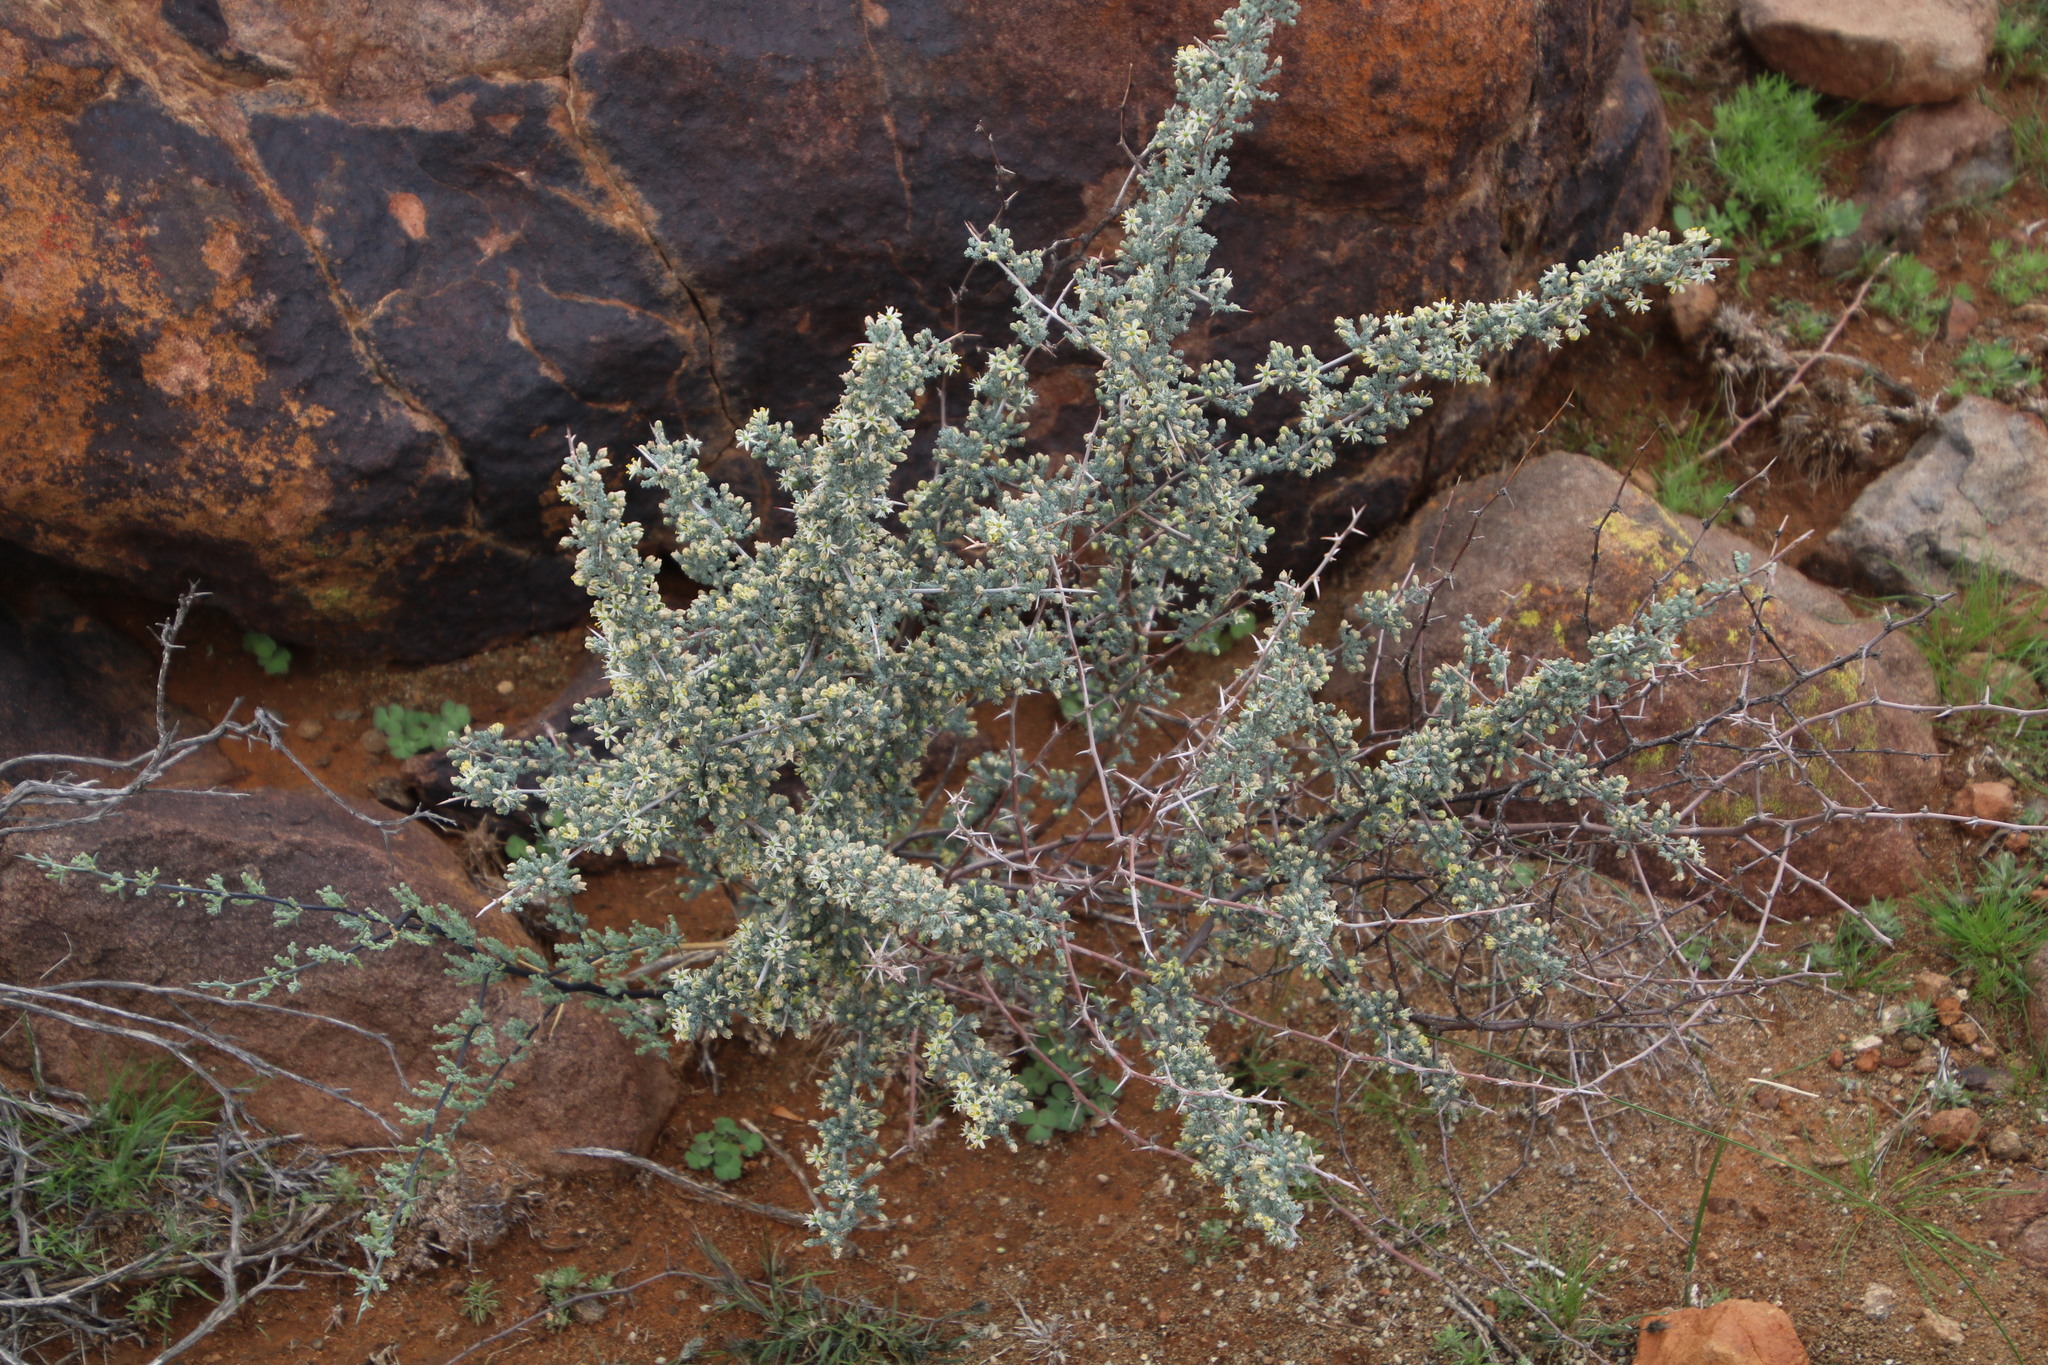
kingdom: Plantae
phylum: Tracheophyta
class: Liliopsida
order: Asparagales
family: Asparagaceae
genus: Asparagus
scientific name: Asparagus capensis
